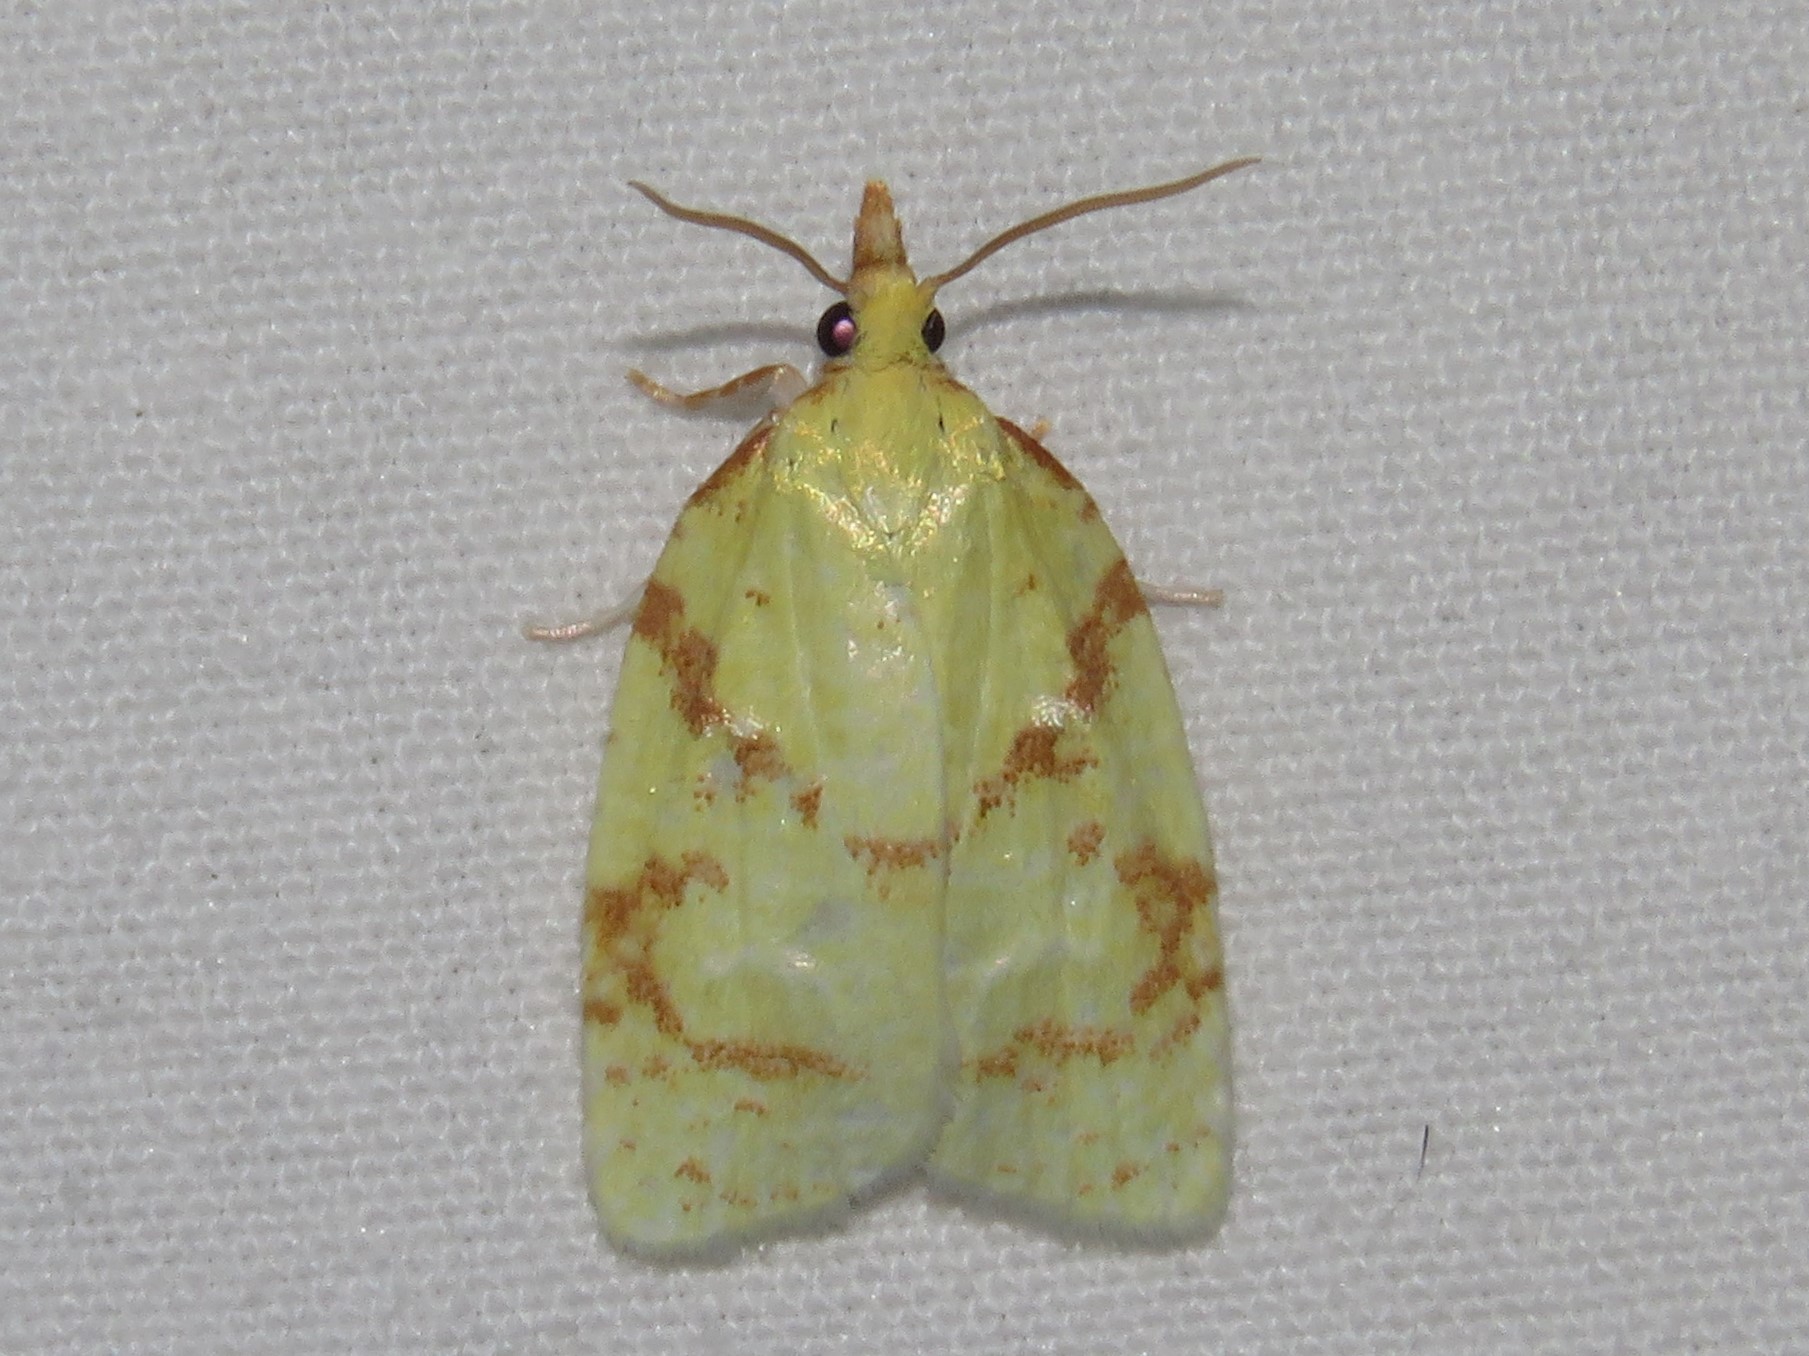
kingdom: Animalia
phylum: Arthropoda
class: Insecta
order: Lepidoptera
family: Tortricidae
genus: Cenopis
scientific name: Cenopis pettitana
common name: Maple-basswood leafroller moth
